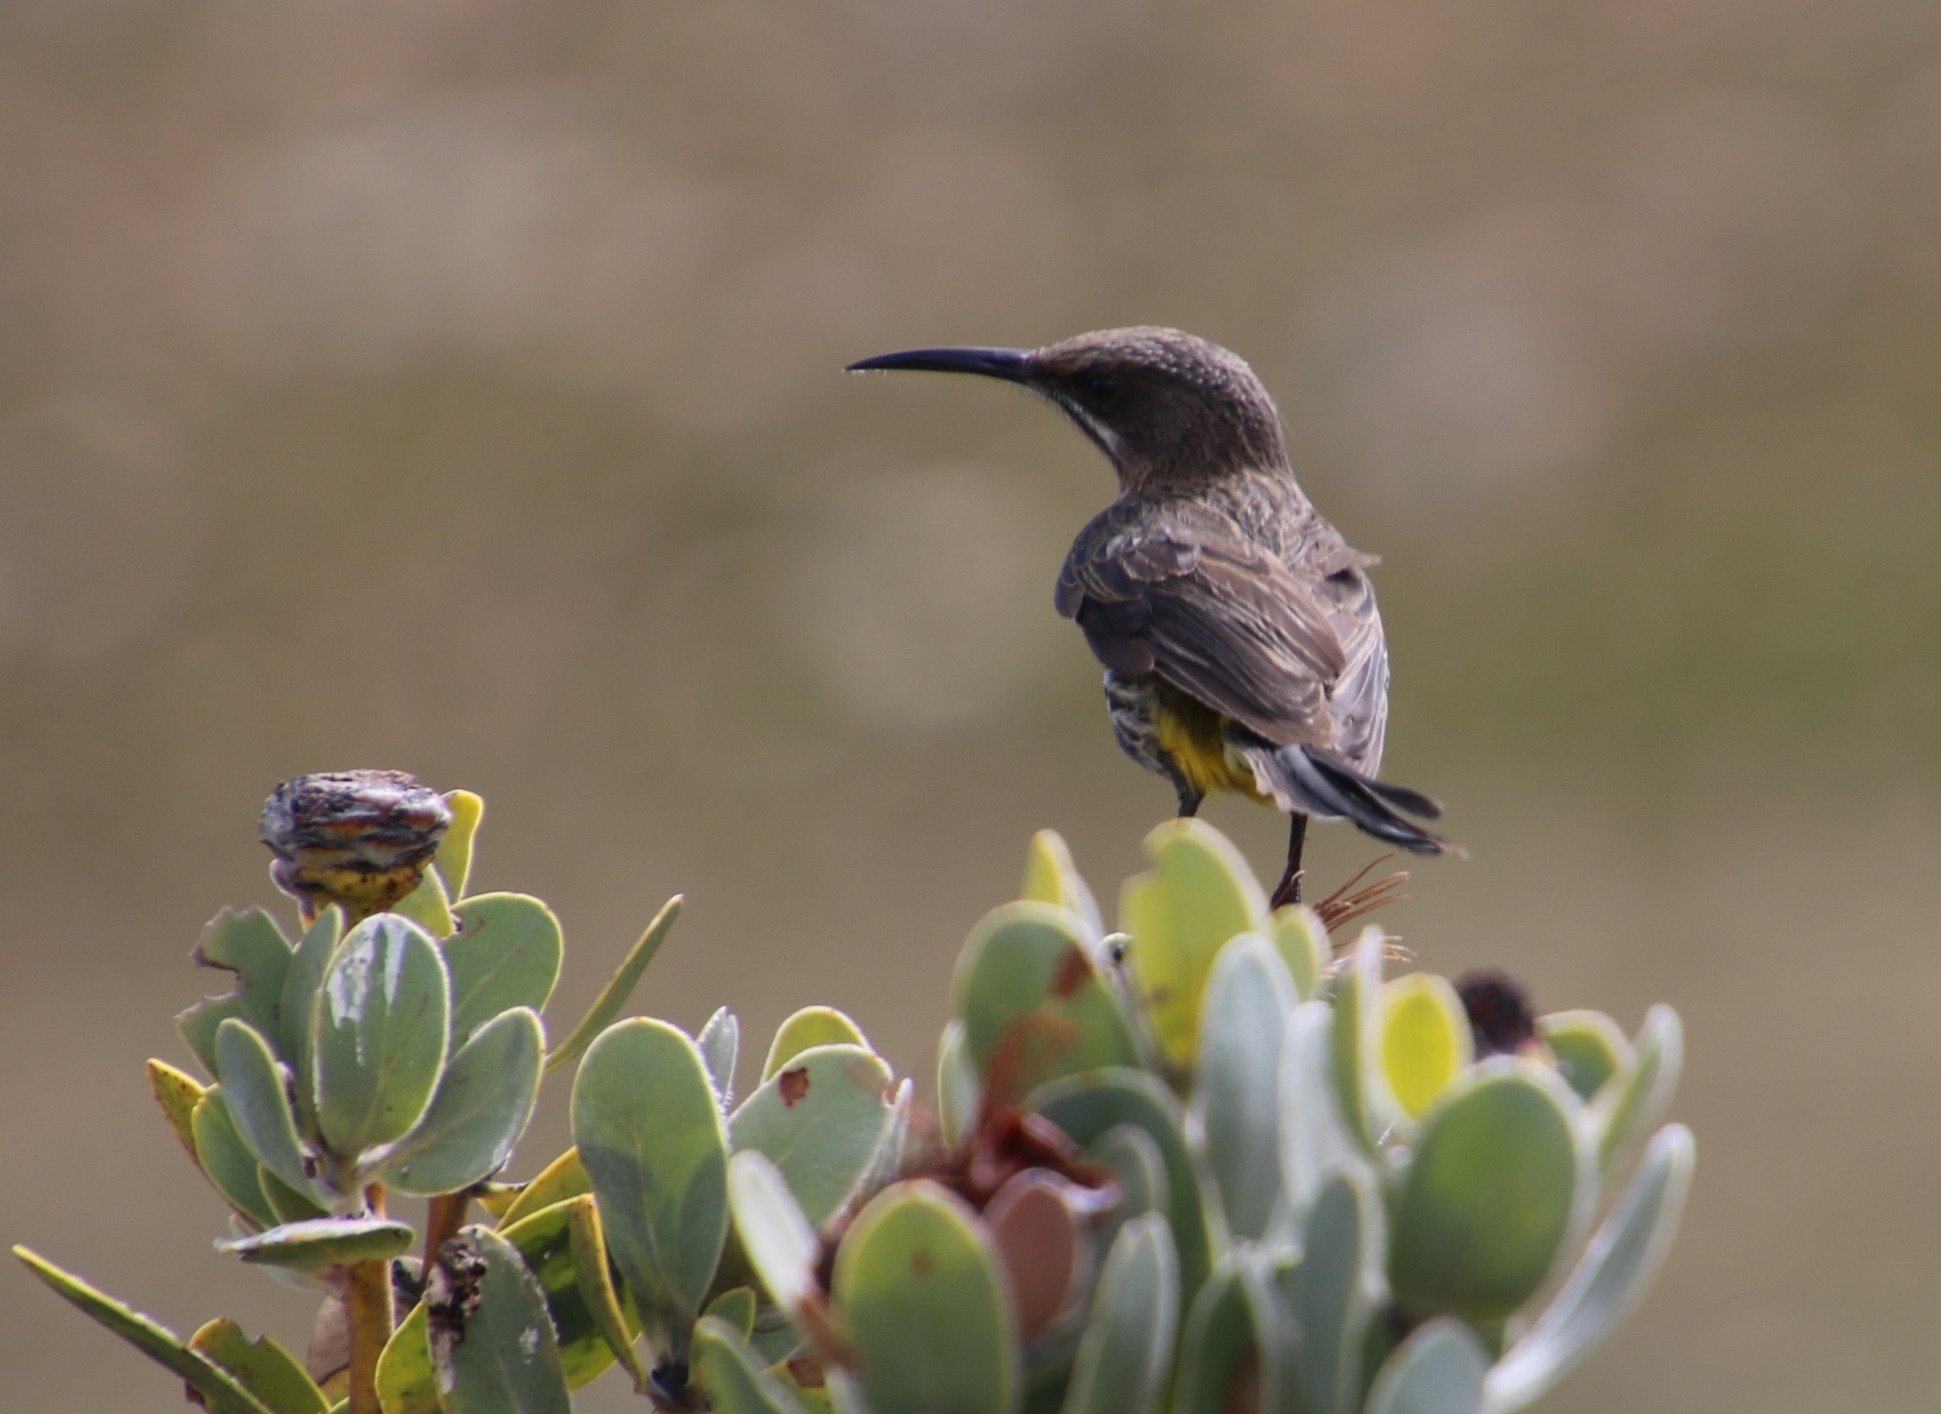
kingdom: Animalia
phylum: Chordata
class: Aves
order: Passeriformes
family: Promeropidae
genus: Promerops
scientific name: Promerops cafer
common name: Cape sugarbird
